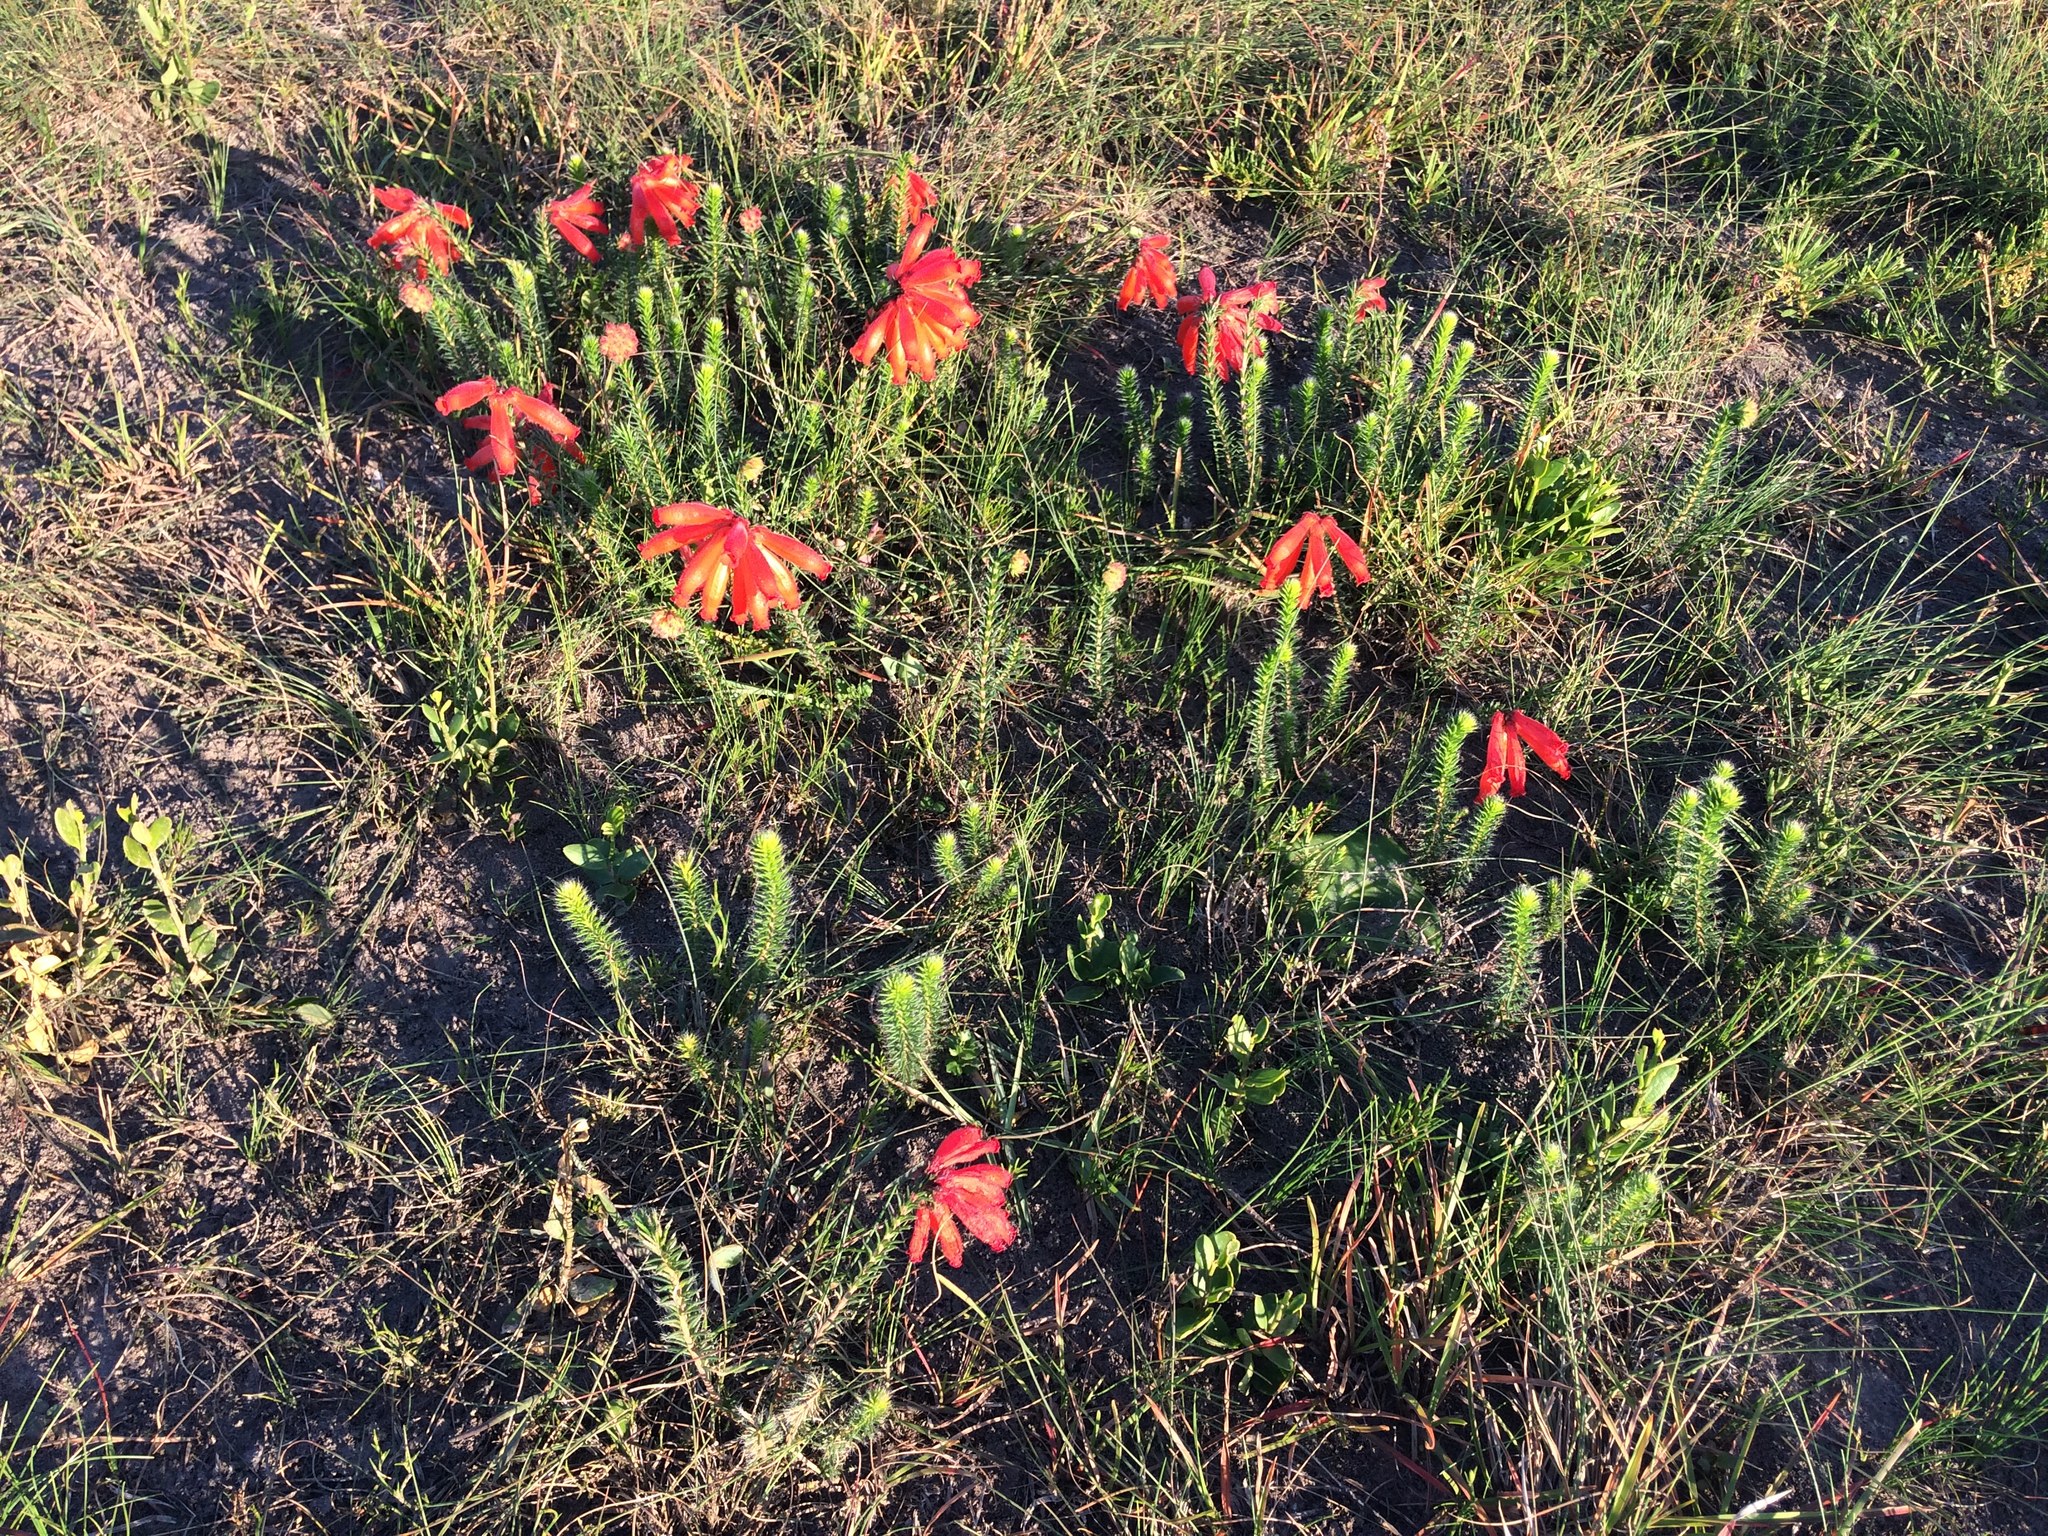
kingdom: Plantae
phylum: Tracheophyta
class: Magnoliopsida
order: Ericales
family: Ericaceae
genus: Erica
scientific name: Erica cerinthoides
